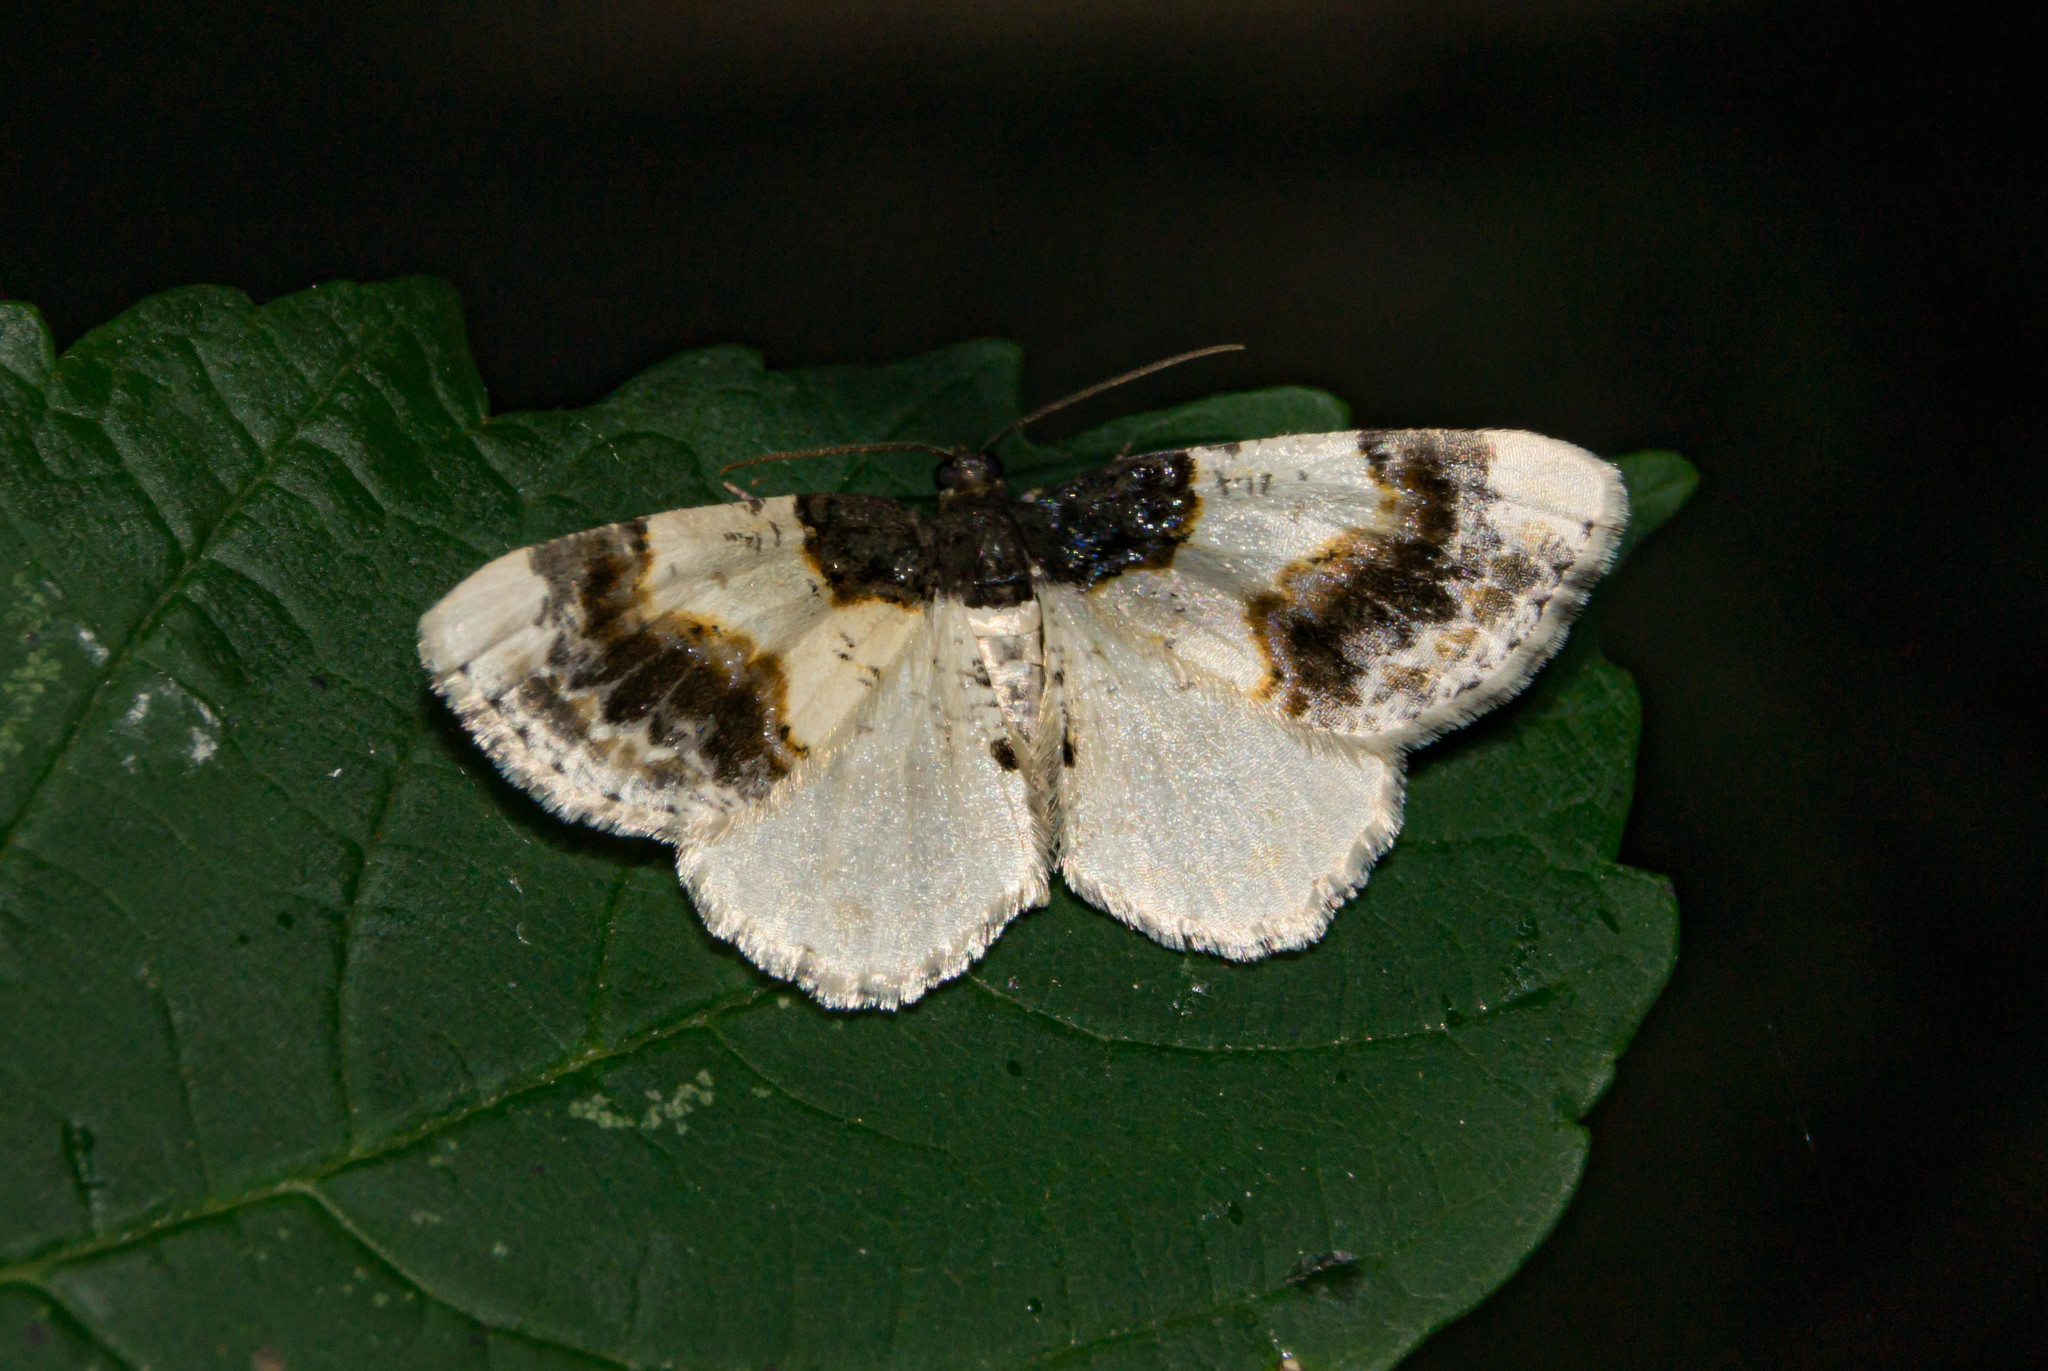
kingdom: Animalia
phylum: Arthropoda
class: Insecta
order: Lepidoptera
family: Geometridae
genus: Ligdia
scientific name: Ligdia adustata
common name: Scorched carpet
